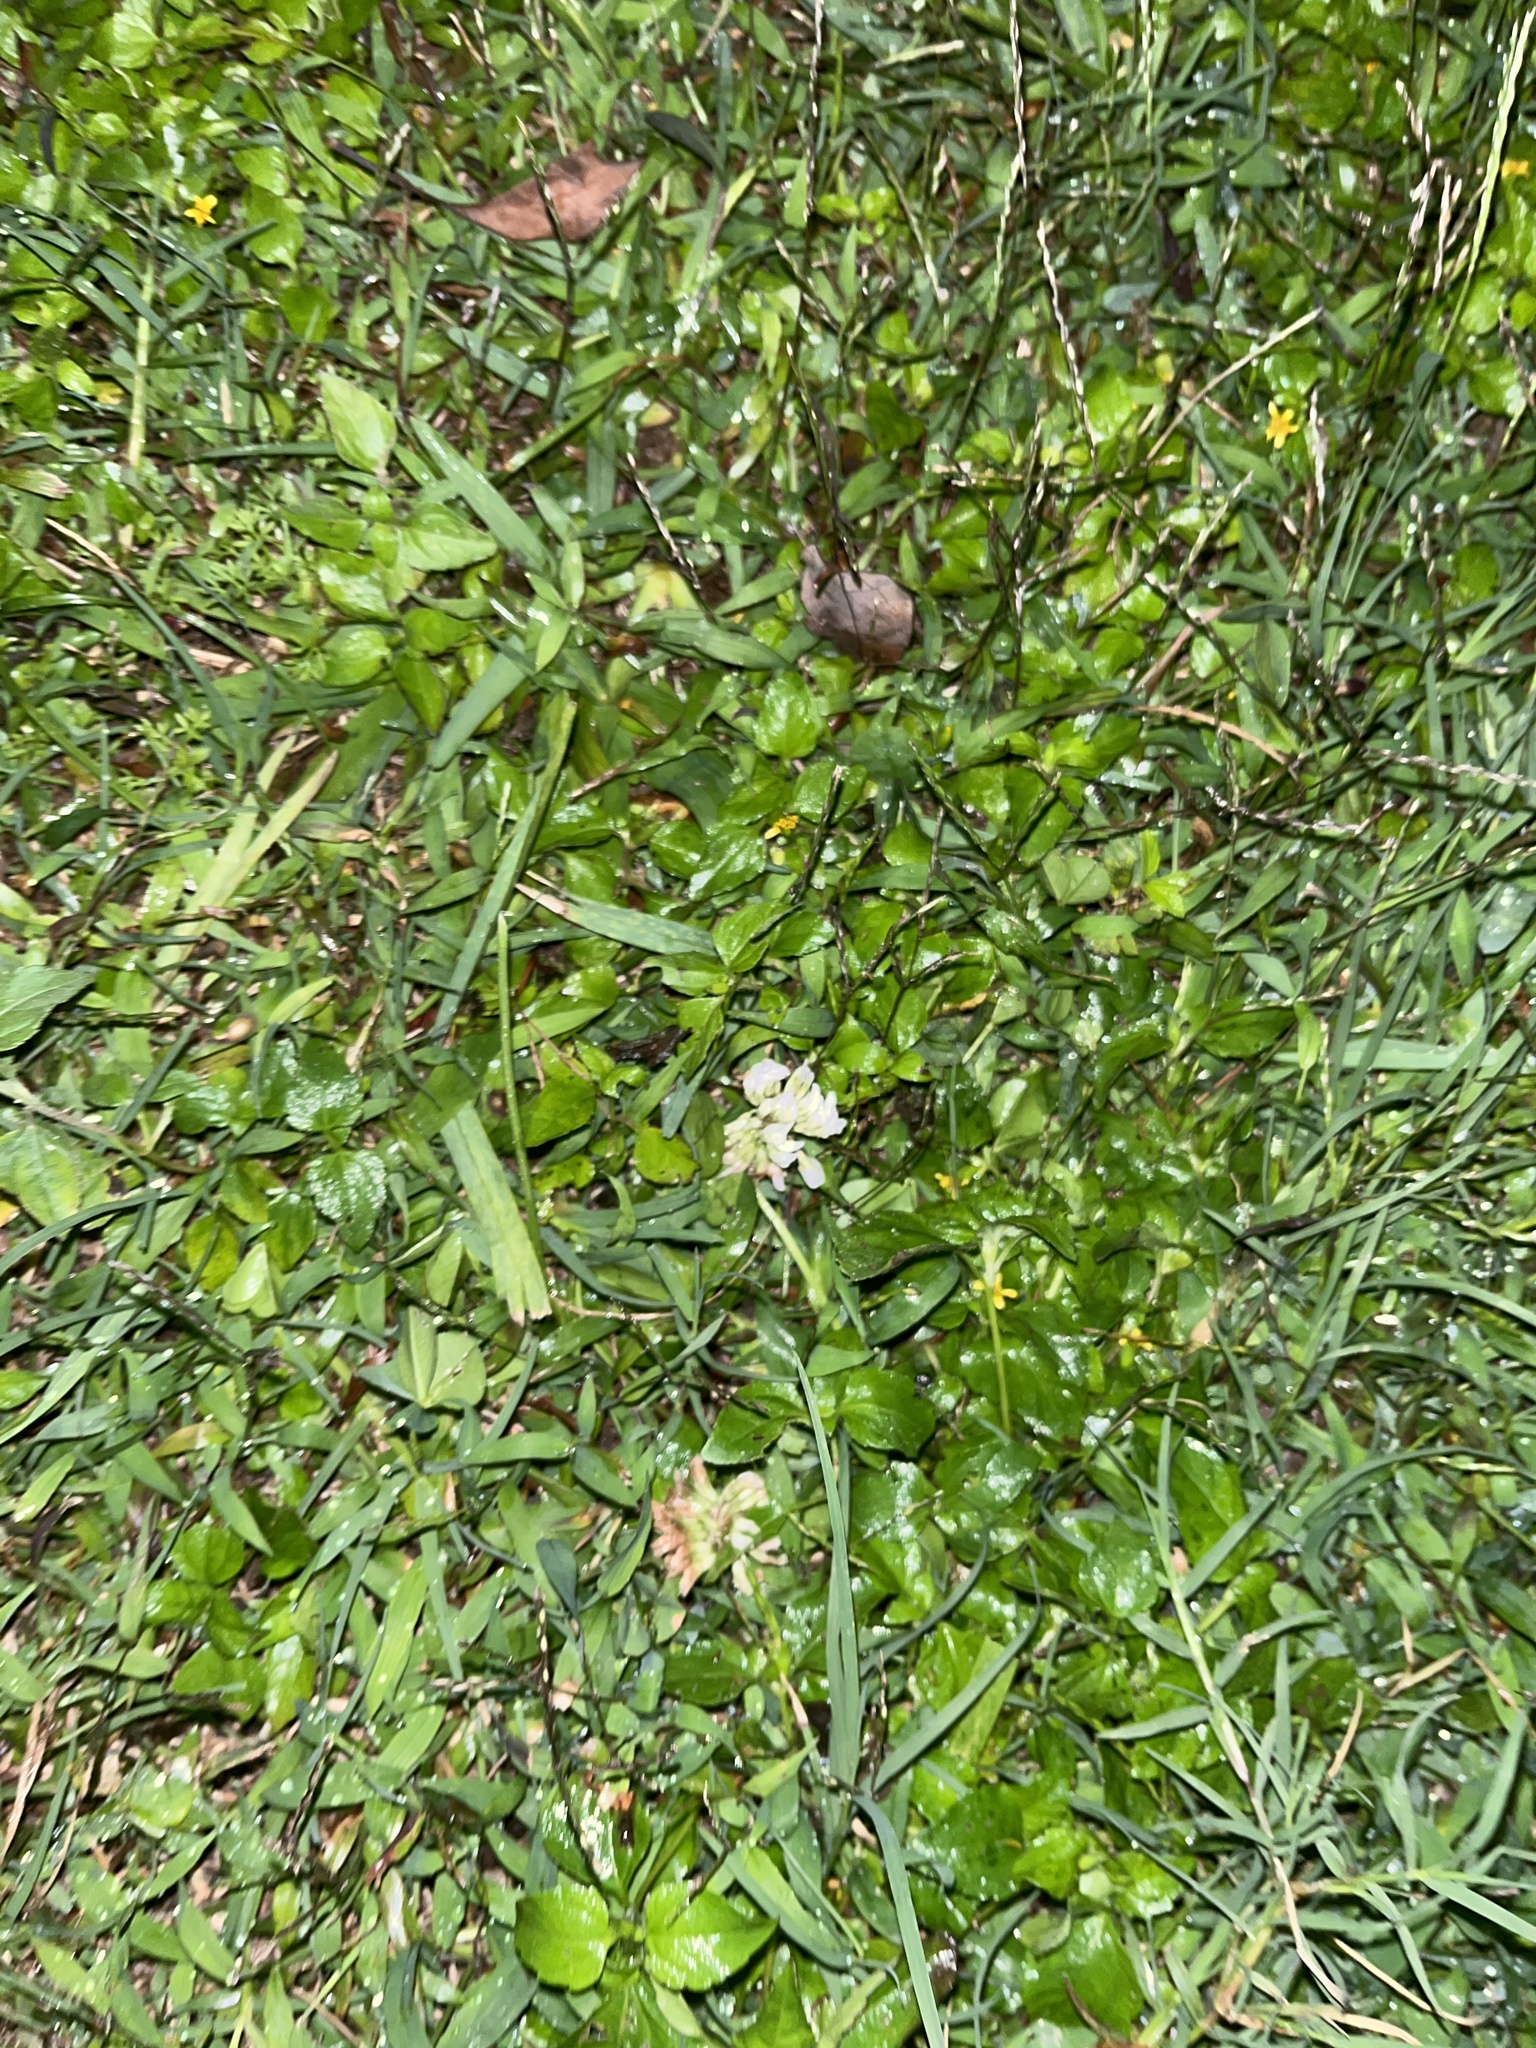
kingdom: Plantae
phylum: Tracheophyta
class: Magnoliopsida
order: Fabales
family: Fabaceae
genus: Trifolium
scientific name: Trifolium repens
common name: White clover
